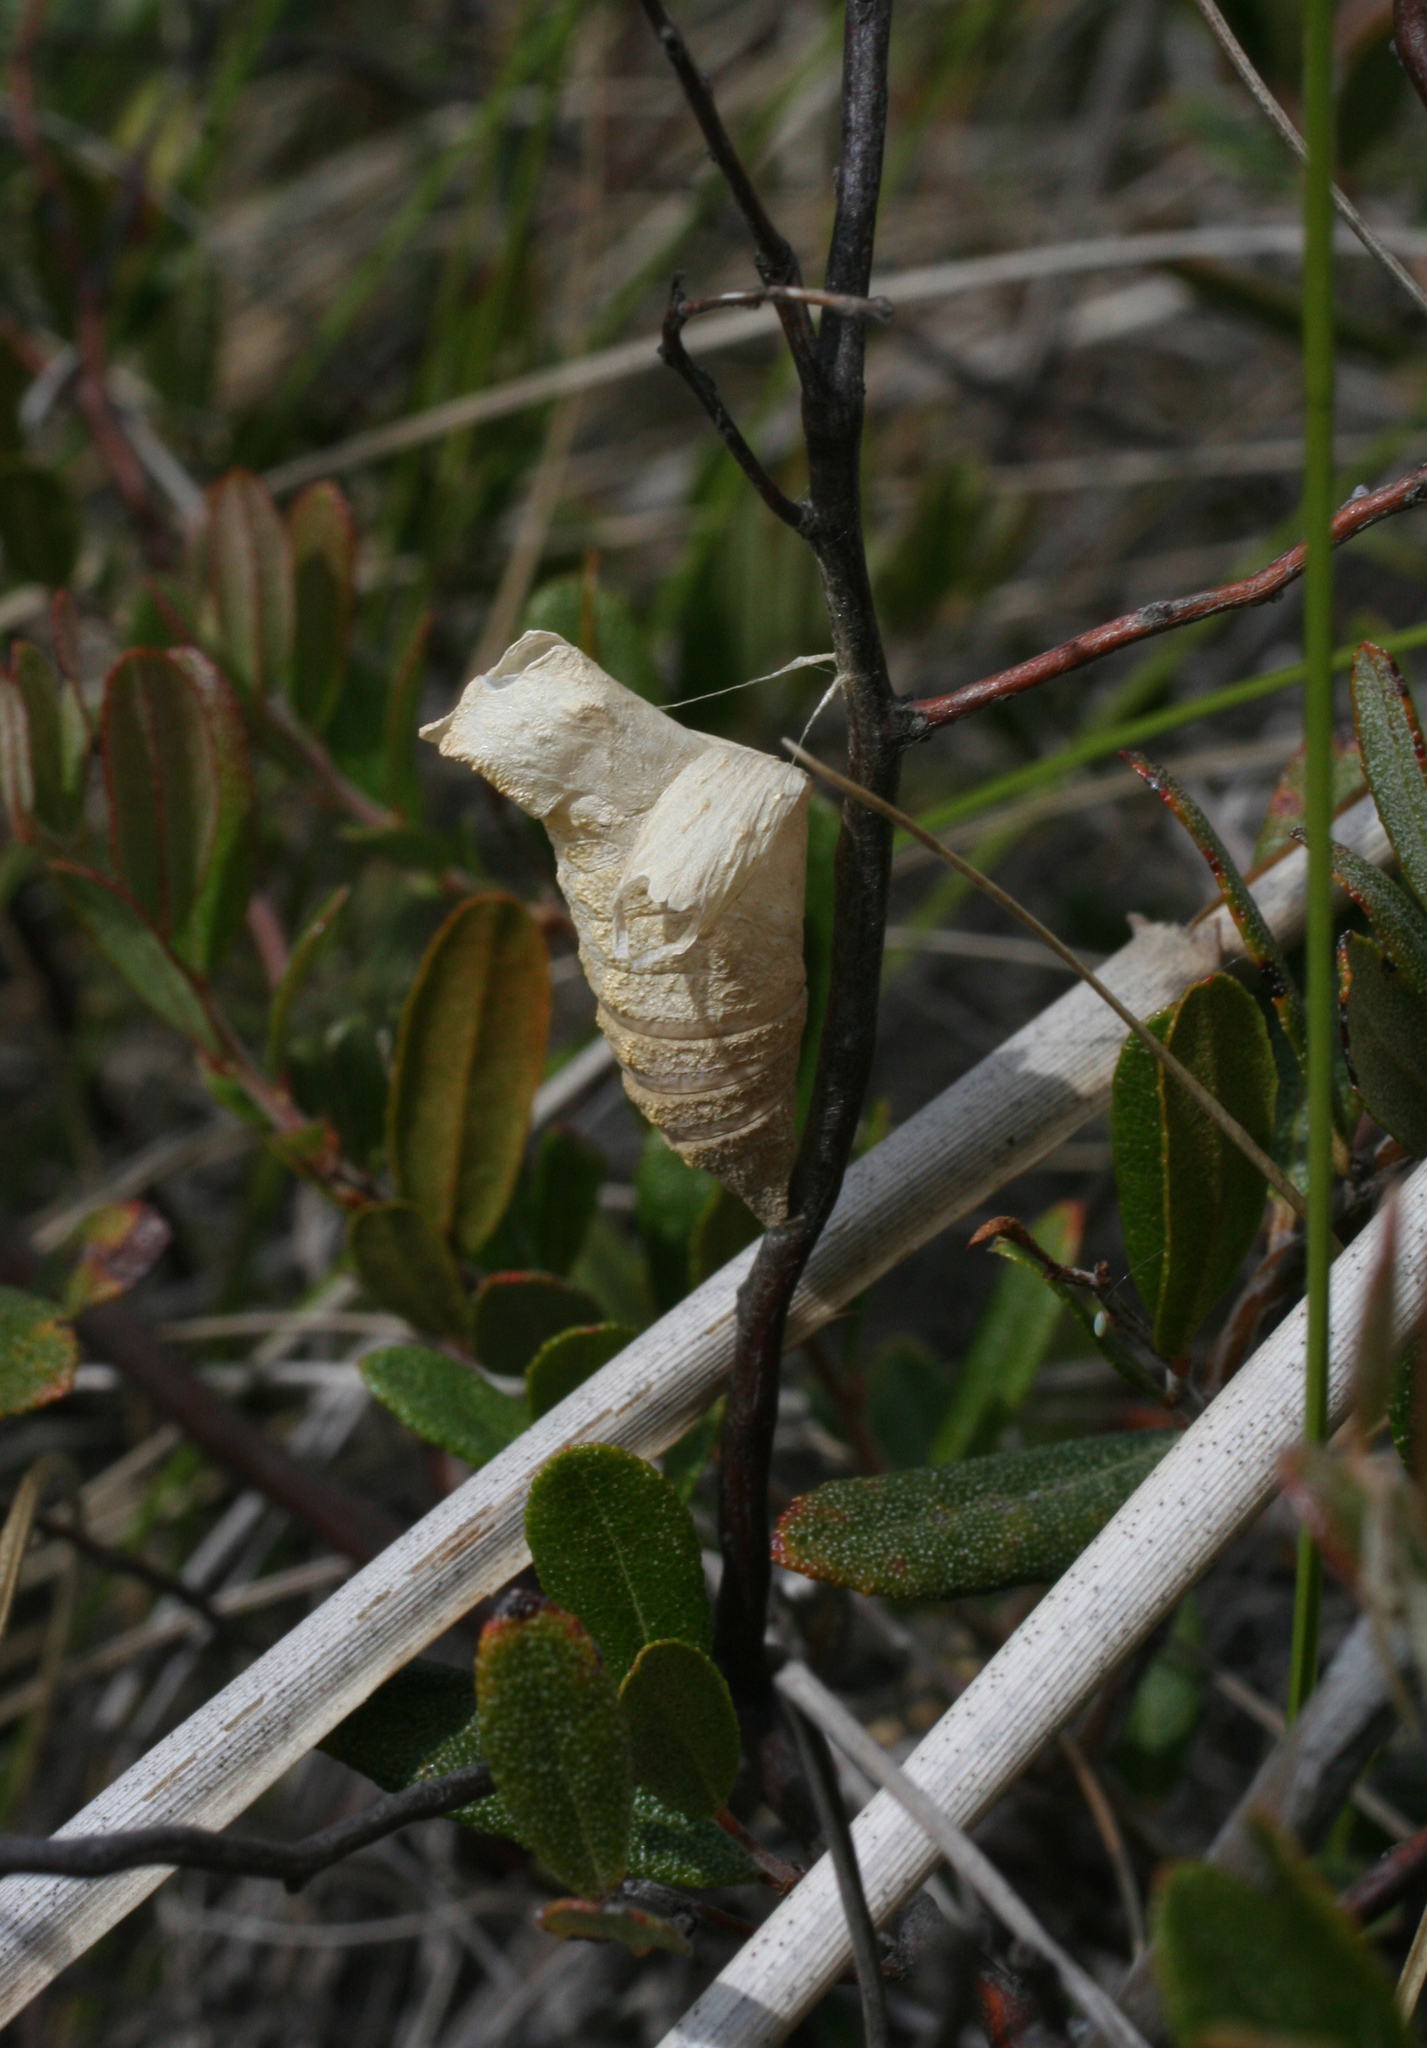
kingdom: Animalia
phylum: Arthropoda
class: Insecta
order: Lepidoptera
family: Papilionidae
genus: Papilio
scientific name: Papilio machaon
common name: Swallowtail
